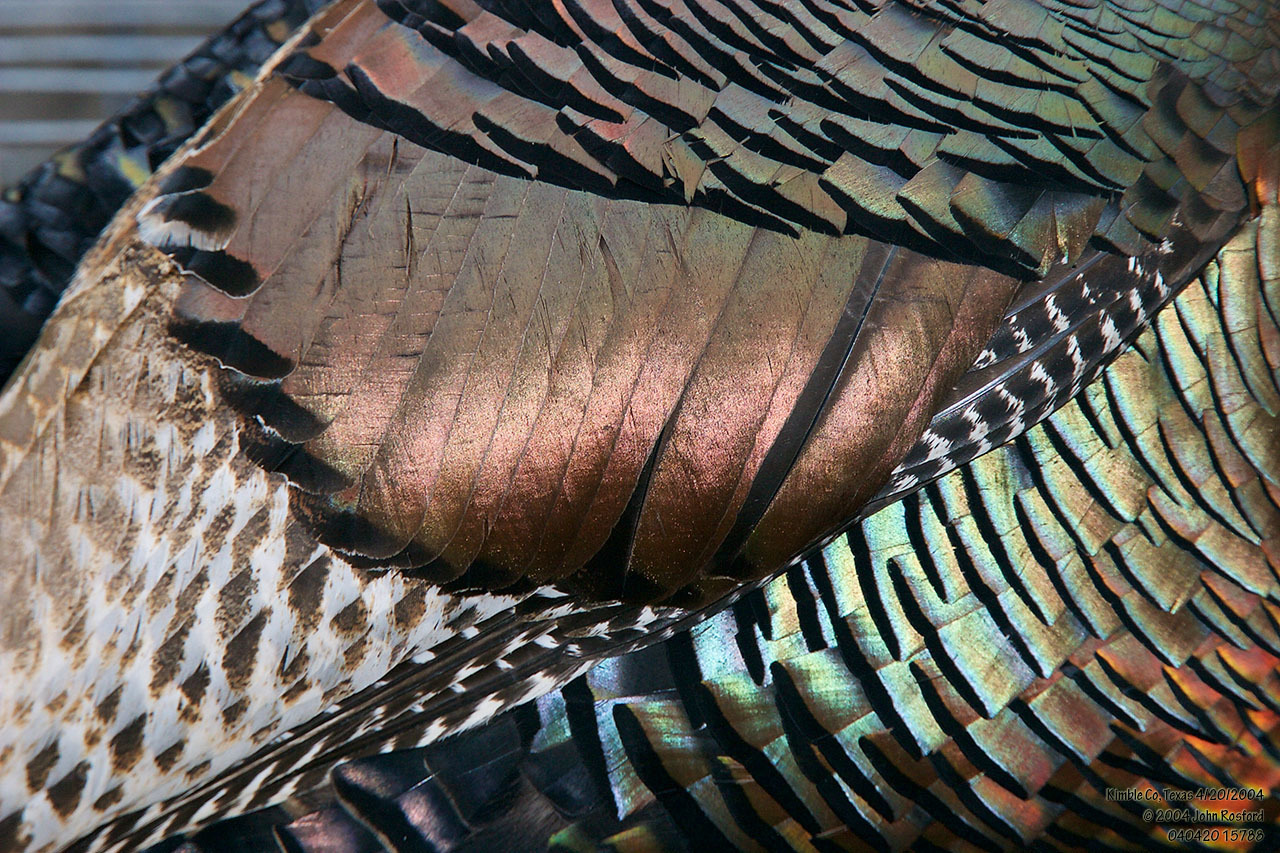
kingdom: Animalia
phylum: Chordata
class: Aves
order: Galliformes
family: Phasianidae
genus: Meleagris
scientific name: Meleagris gallopavo
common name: Wild turkey
